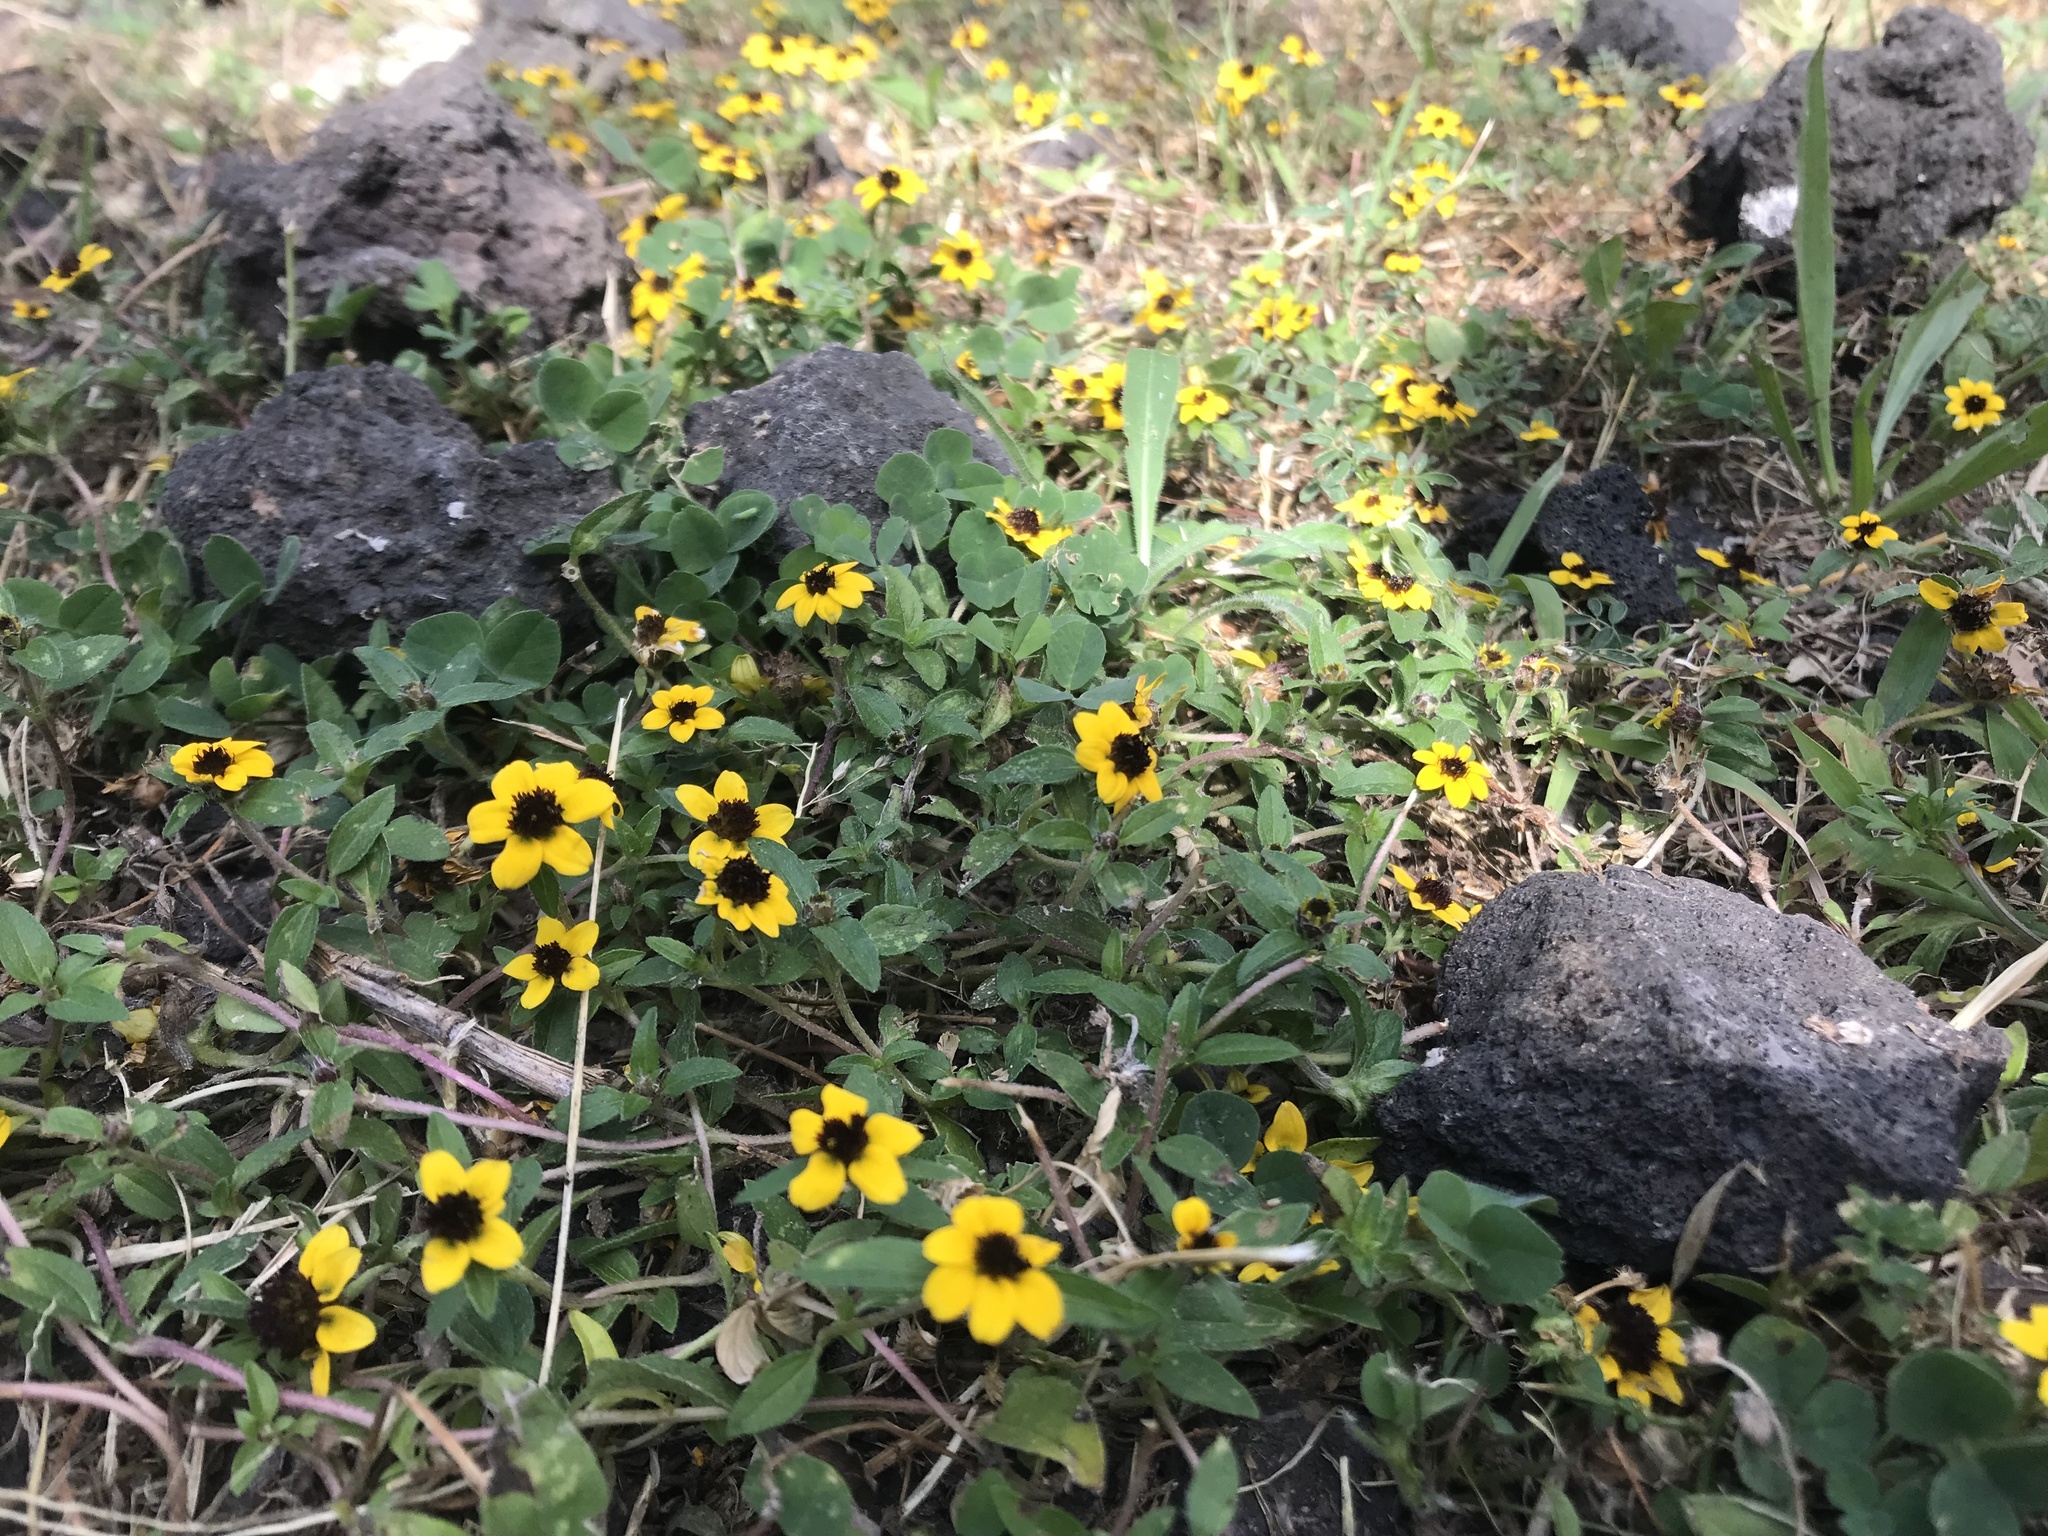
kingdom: Plantae
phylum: Tracheophyta
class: Magnoliopsida
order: Asterales
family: Asteraceae
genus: Sanvitalia
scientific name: Sanvitalia procumbens
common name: Mexican creeping zinnia
